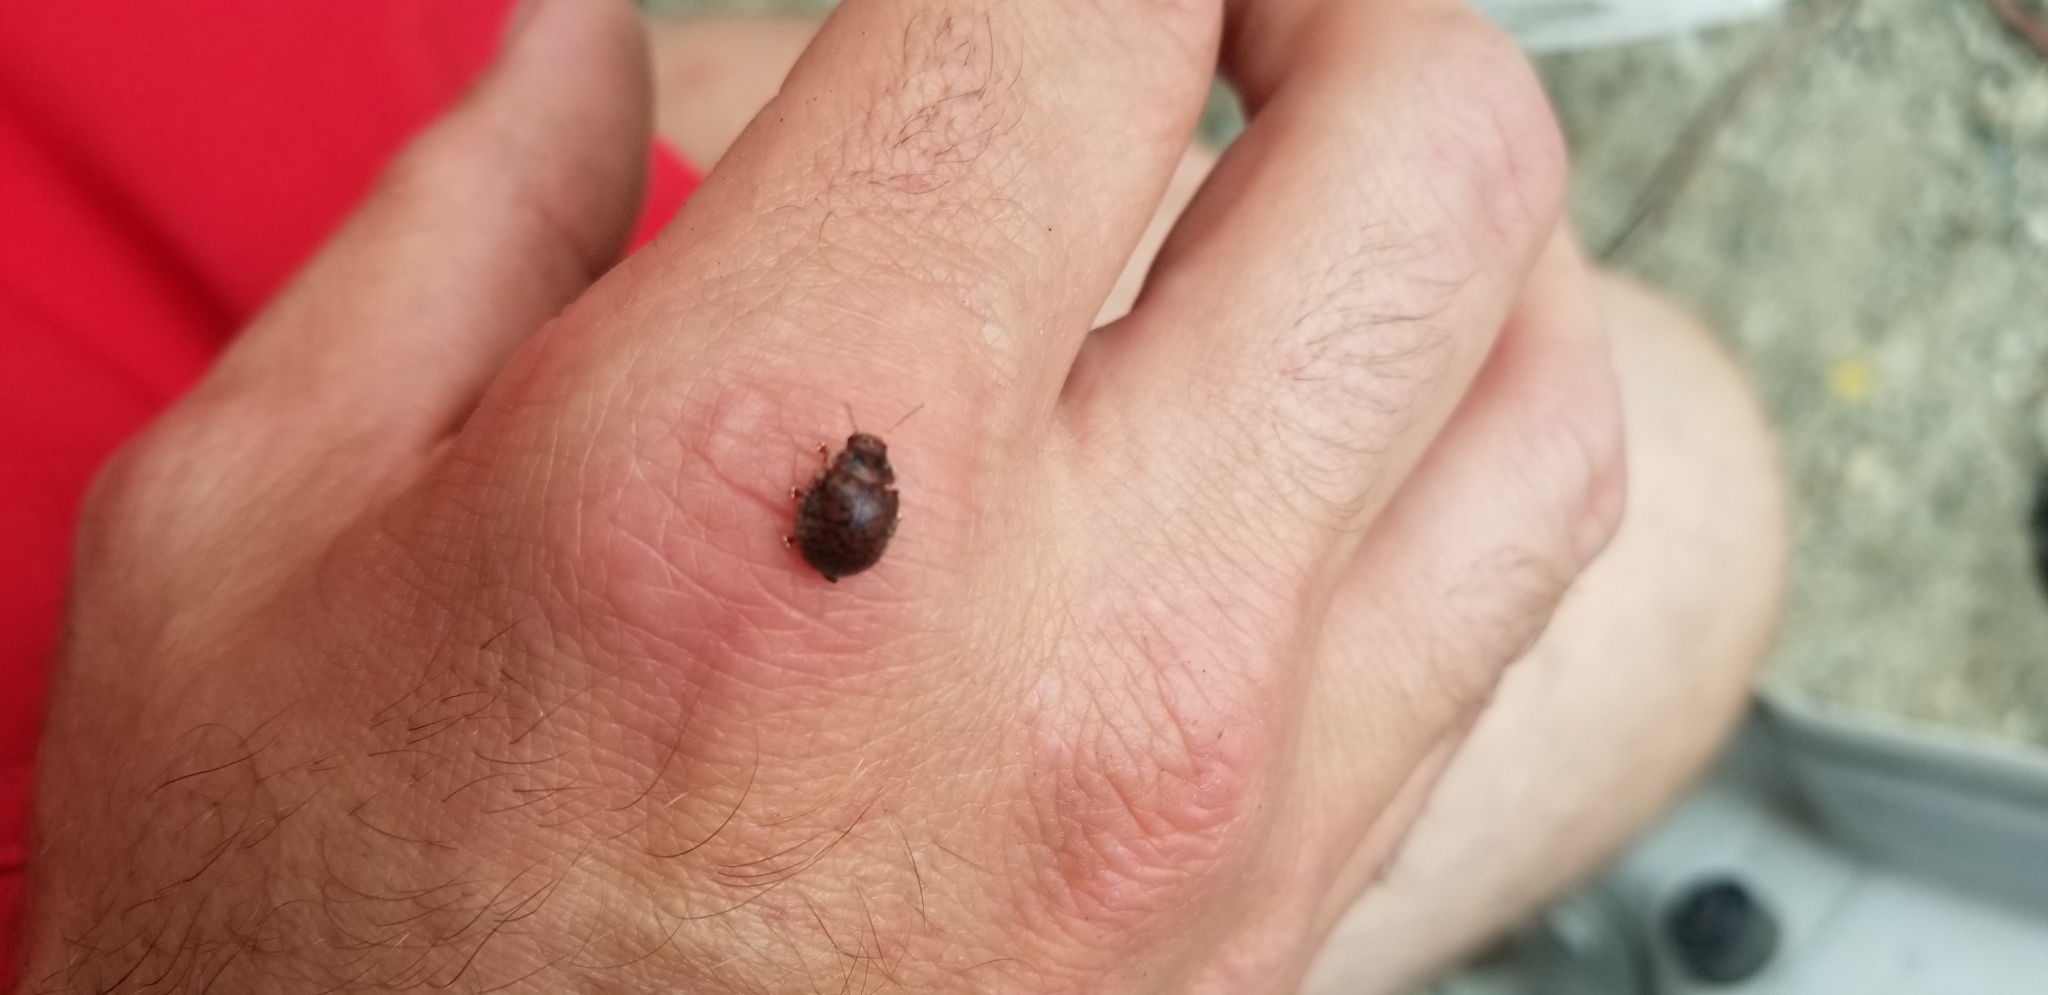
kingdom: Animalia
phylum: Arthropoda
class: Insecta
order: Coleoptera
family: Chrysomelidae
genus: Trachymela
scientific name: Trachymela sloanei
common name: Australian tortoise beetle
